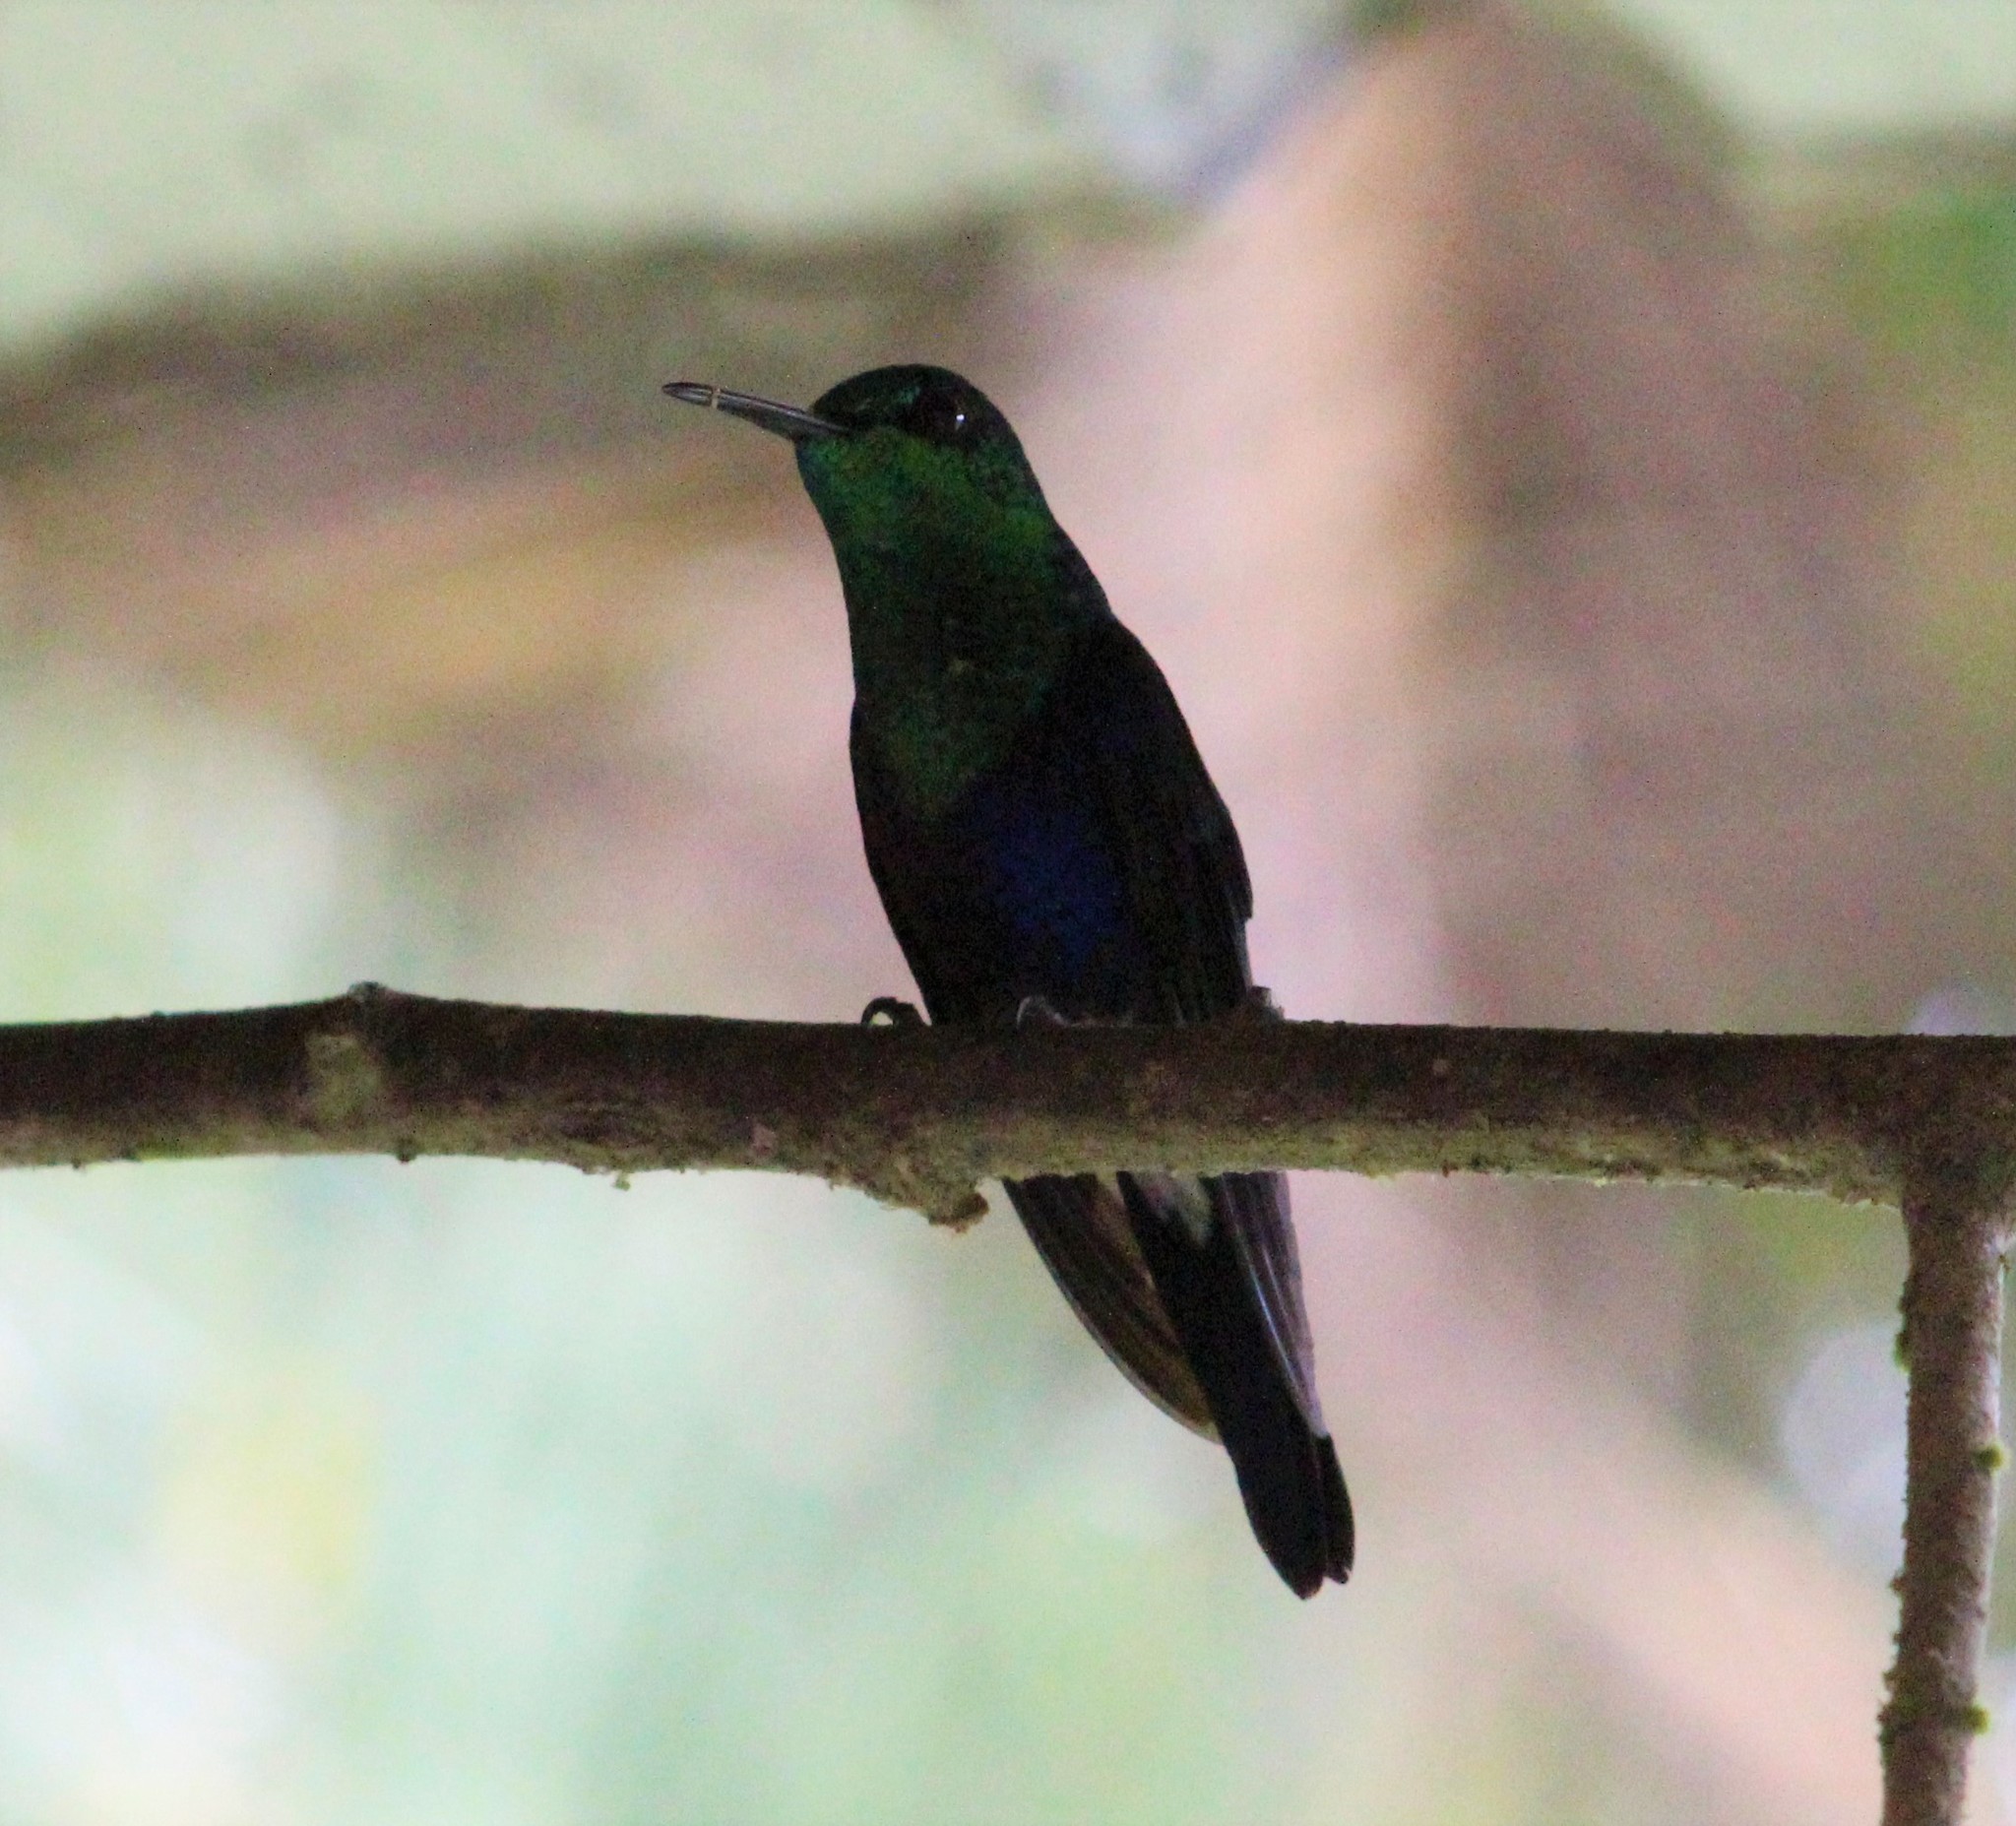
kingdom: Animalia
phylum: Chordata
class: Aves
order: Apodiformes
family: Trochilidae
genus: Thalurania
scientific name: Thalurania colombica
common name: Crowned woodnymph
